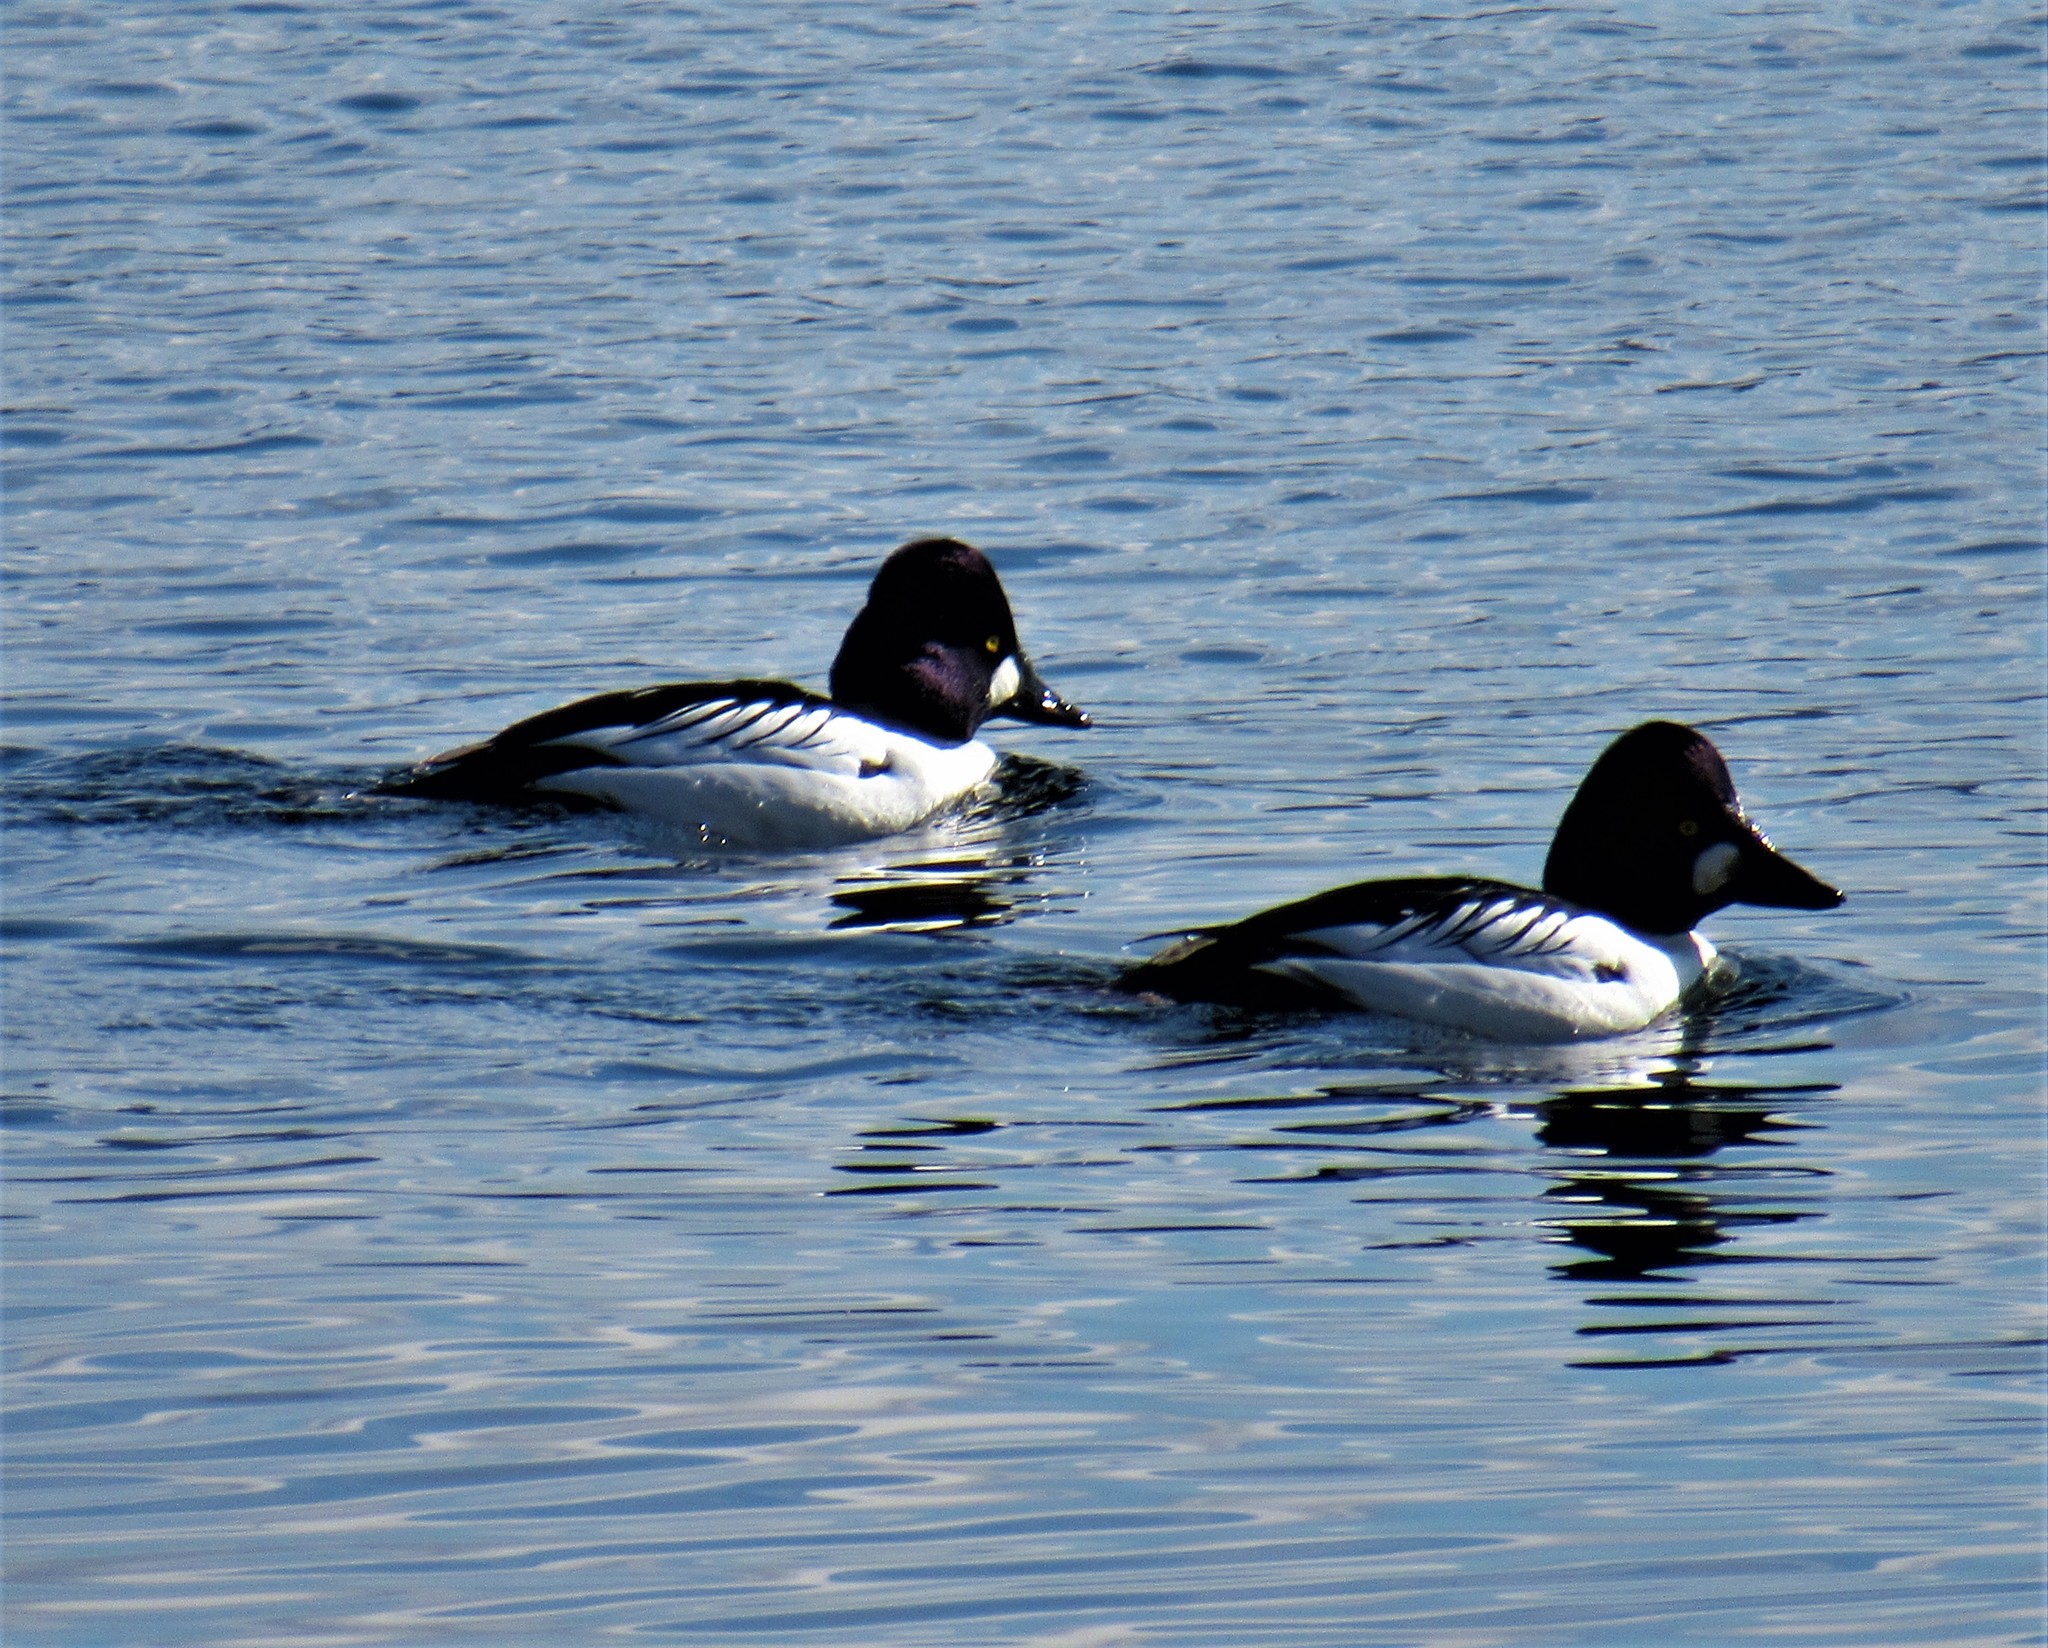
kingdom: Animalia
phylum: Chordata
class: Aves
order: Anseriformes
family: Anatidae
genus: Bucephala
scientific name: Bucephala clangula
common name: Common goldeneye
